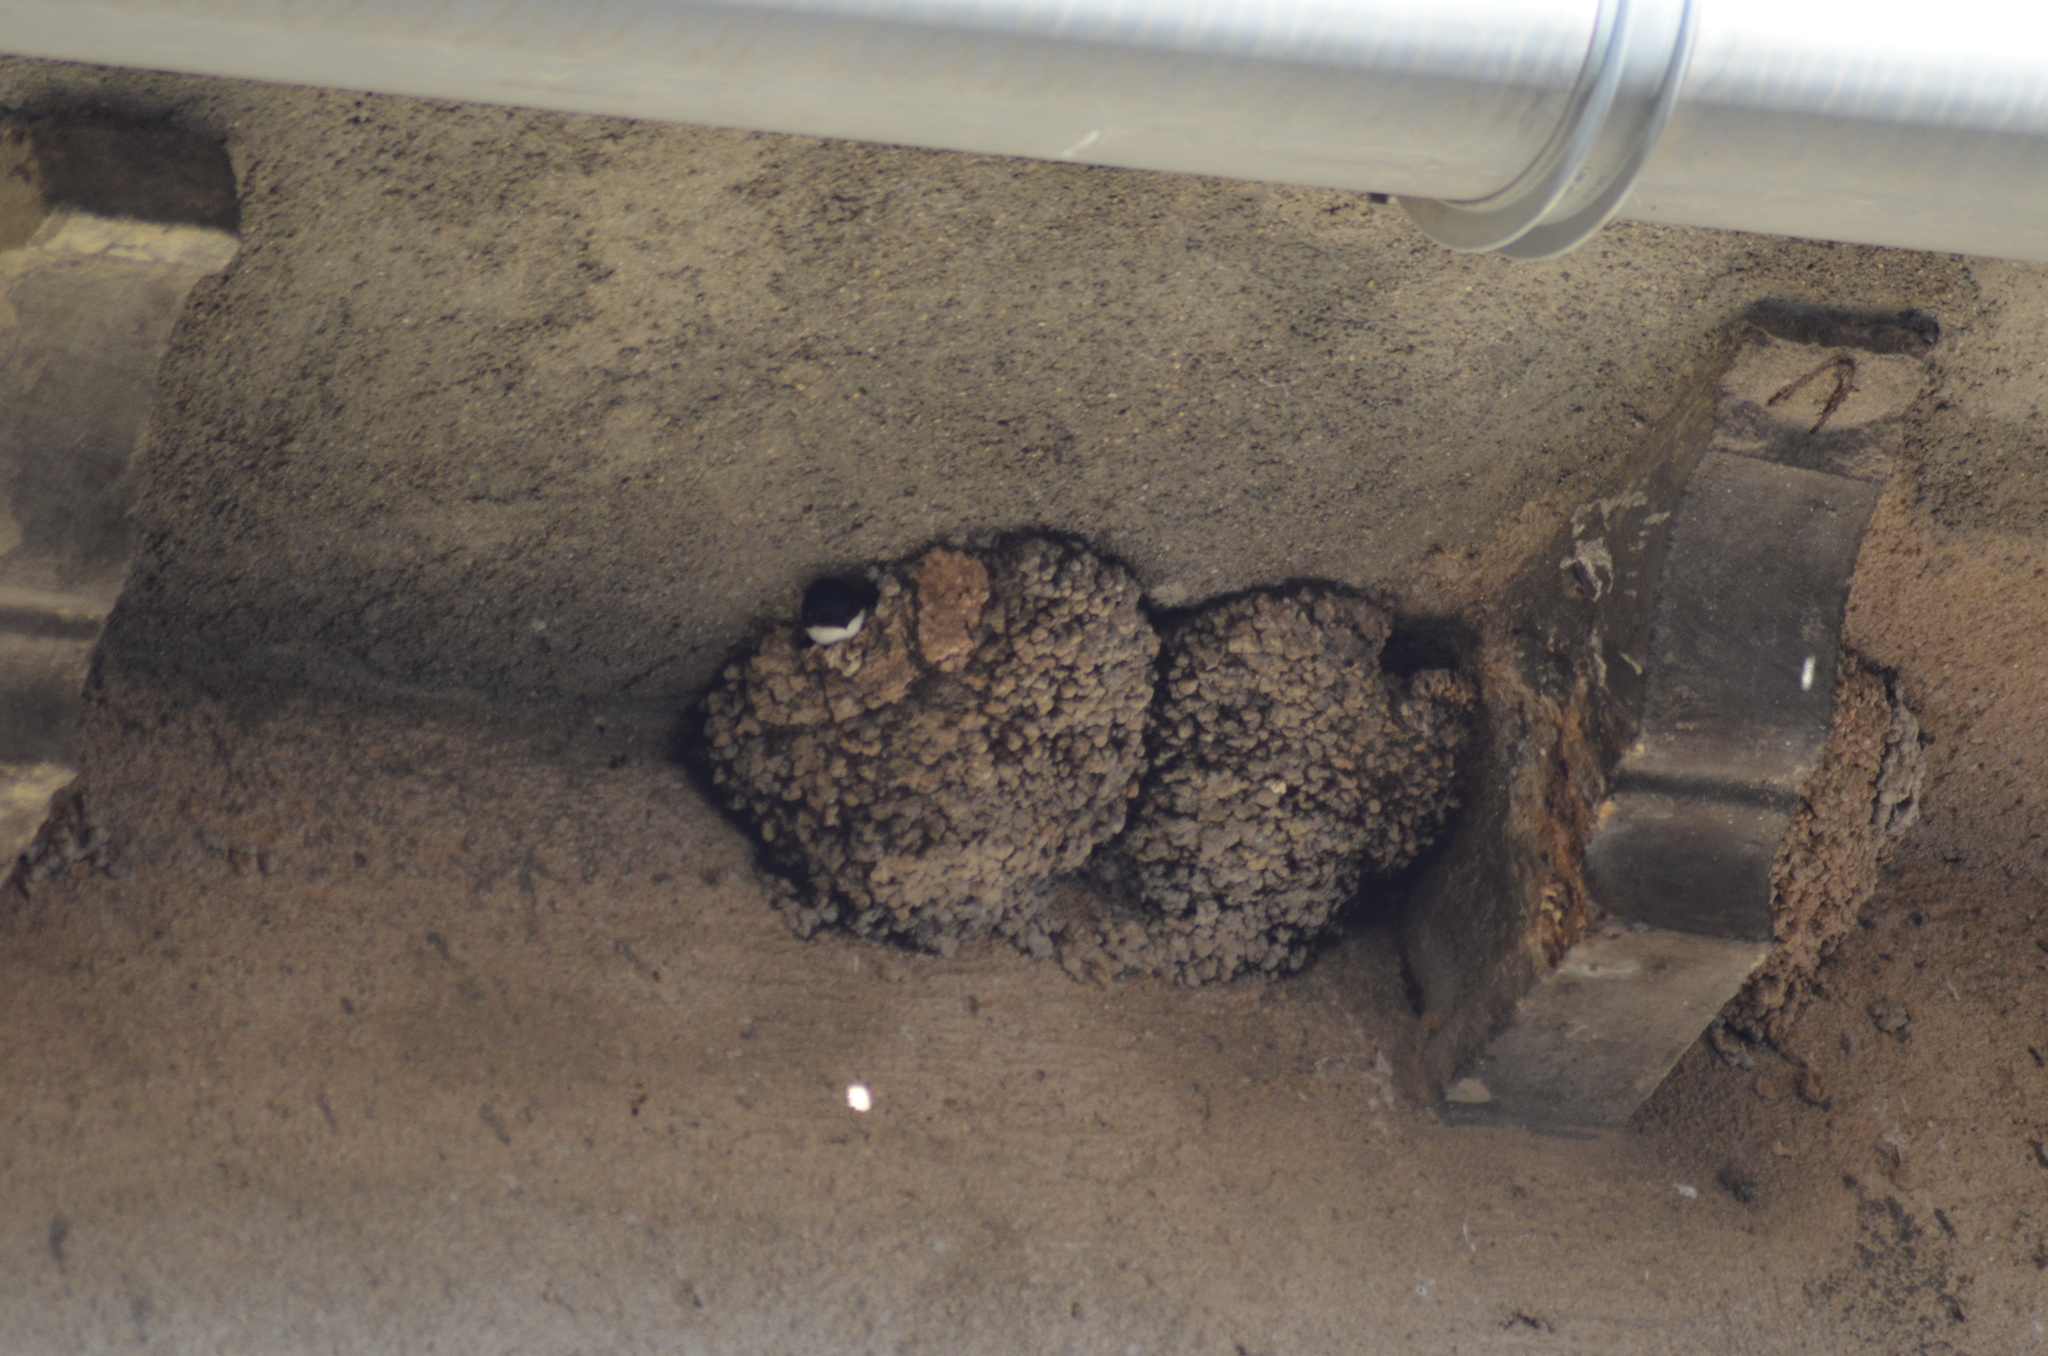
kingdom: Animalia
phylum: Chordata
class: Aves
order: Passeriformes
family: Hirundinidae
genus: Delichon
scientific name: Delichon urbicum
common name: Common house martin
